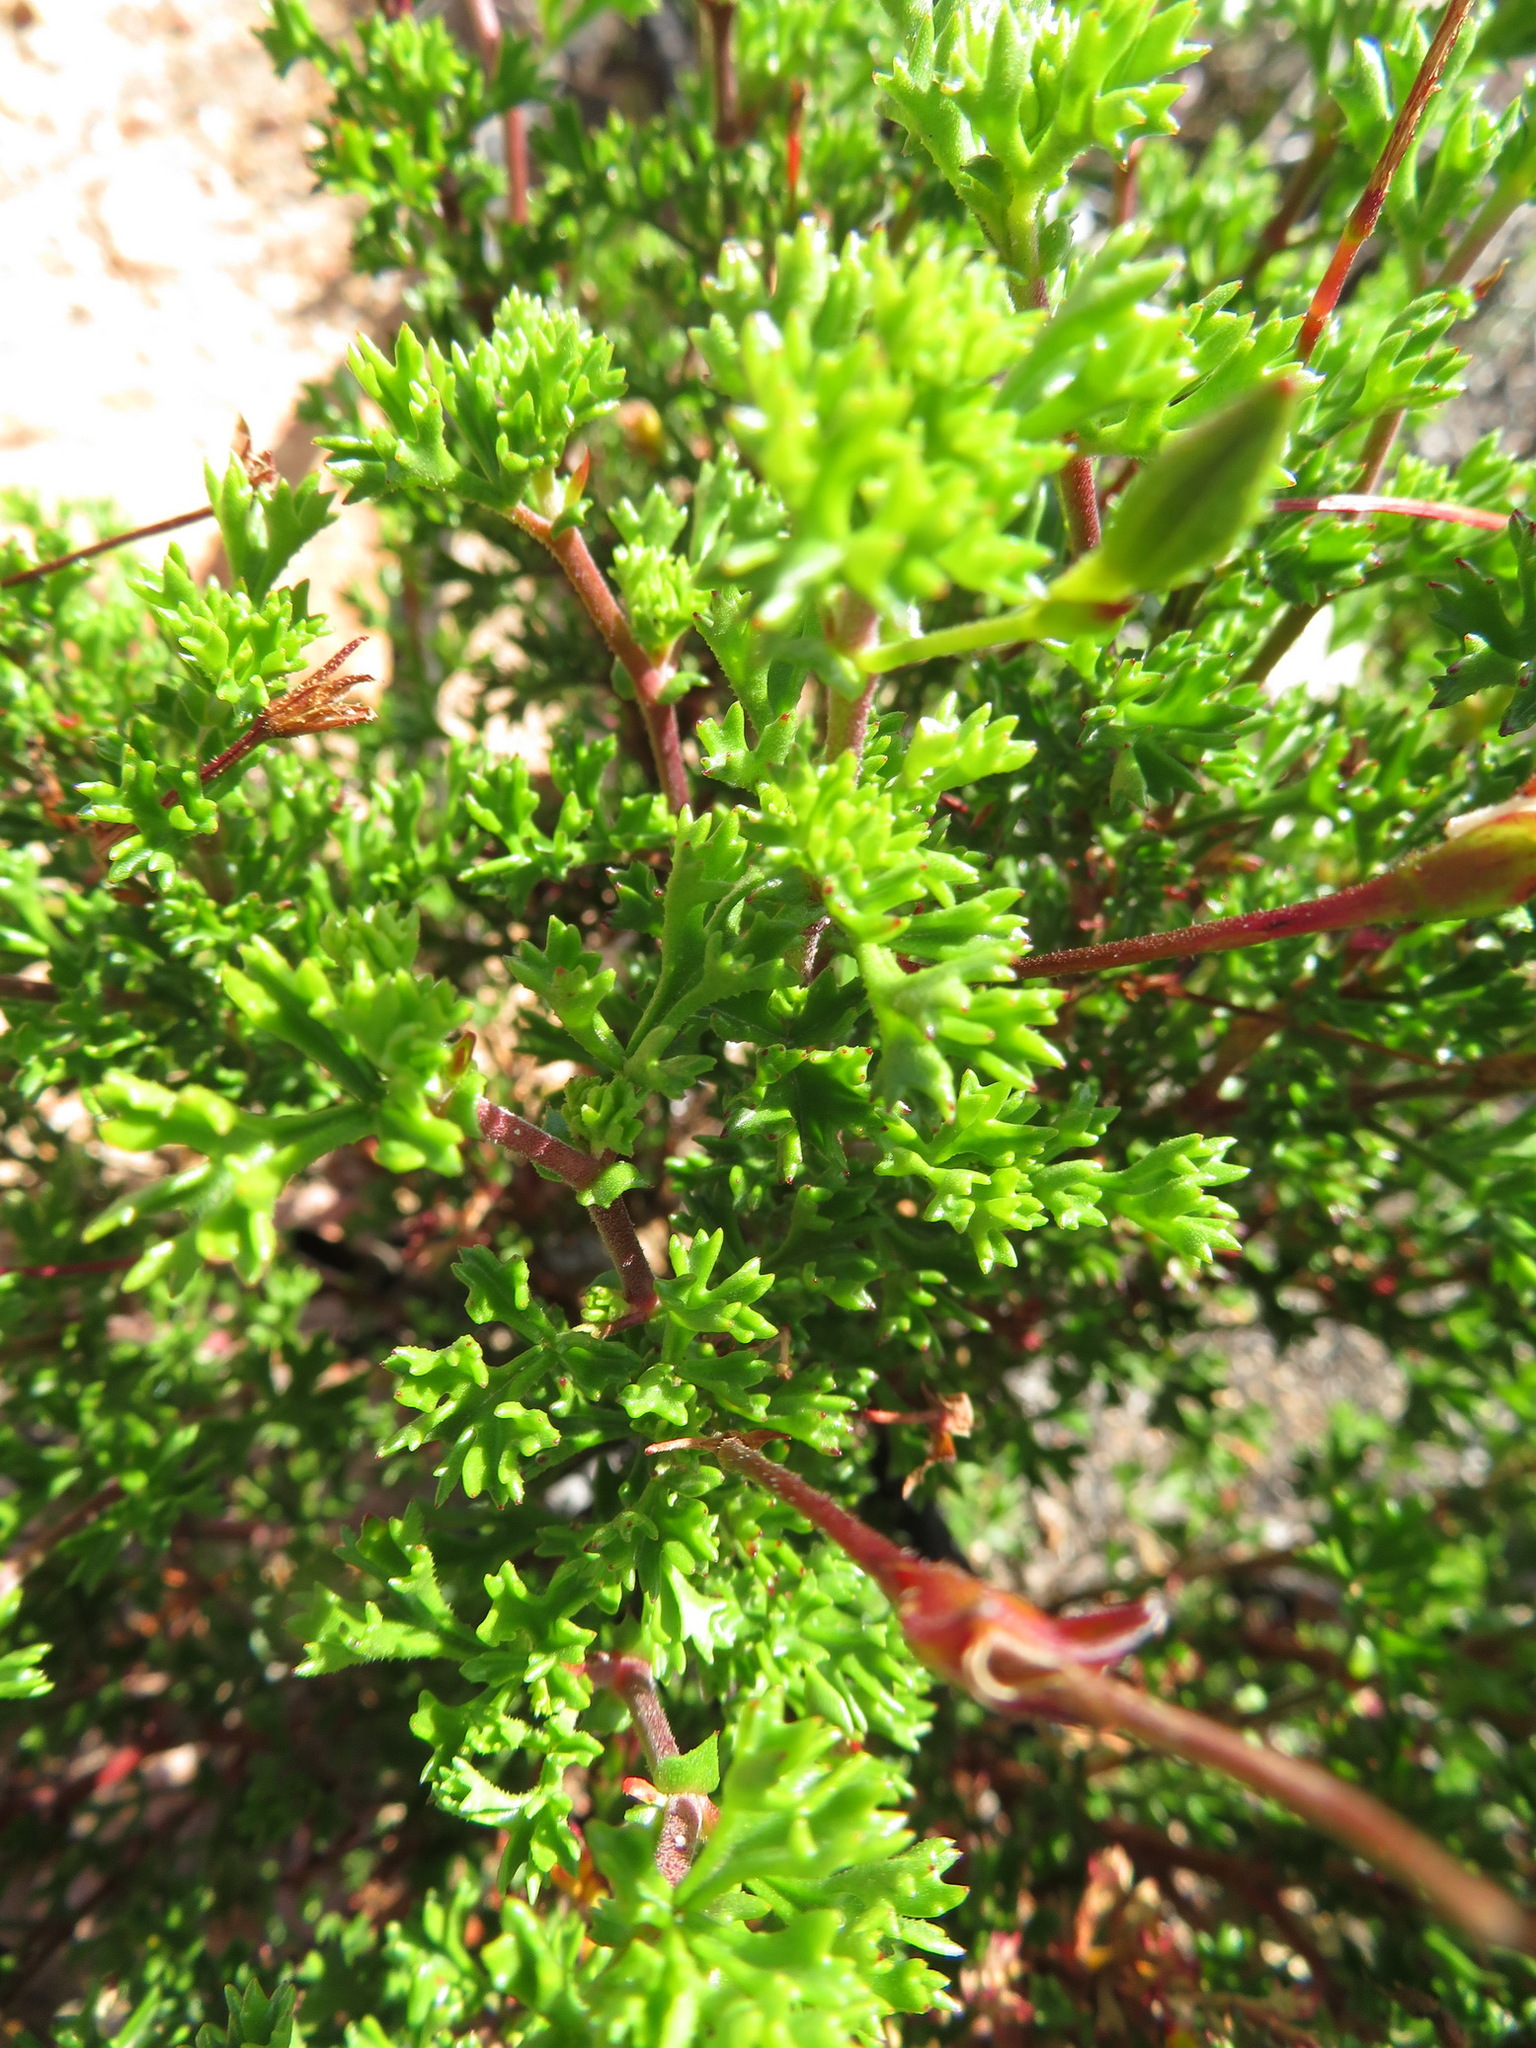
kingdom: Plantae
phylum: Tracheophyta
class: Magnoliopsida
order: Geraniales
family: Geraniaceae
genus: Pelargonium
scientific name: Pelargonium fruticosum
